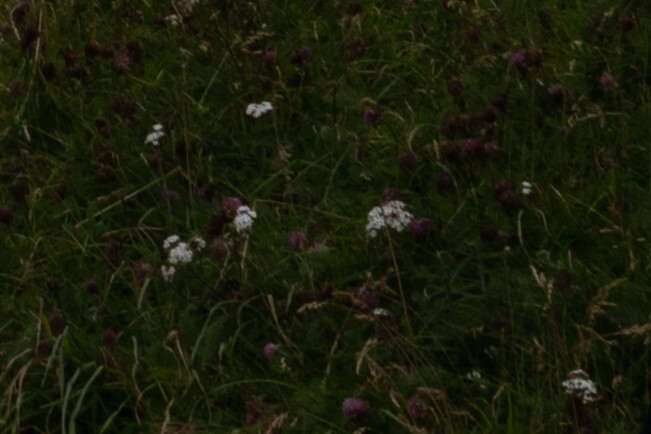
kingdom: Plantae
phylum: Tracheophyta
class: Magnoliopsida
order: Asterales
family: Asteraceae
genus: Achillea
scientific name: Achillea millefolium
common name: Yarrow
